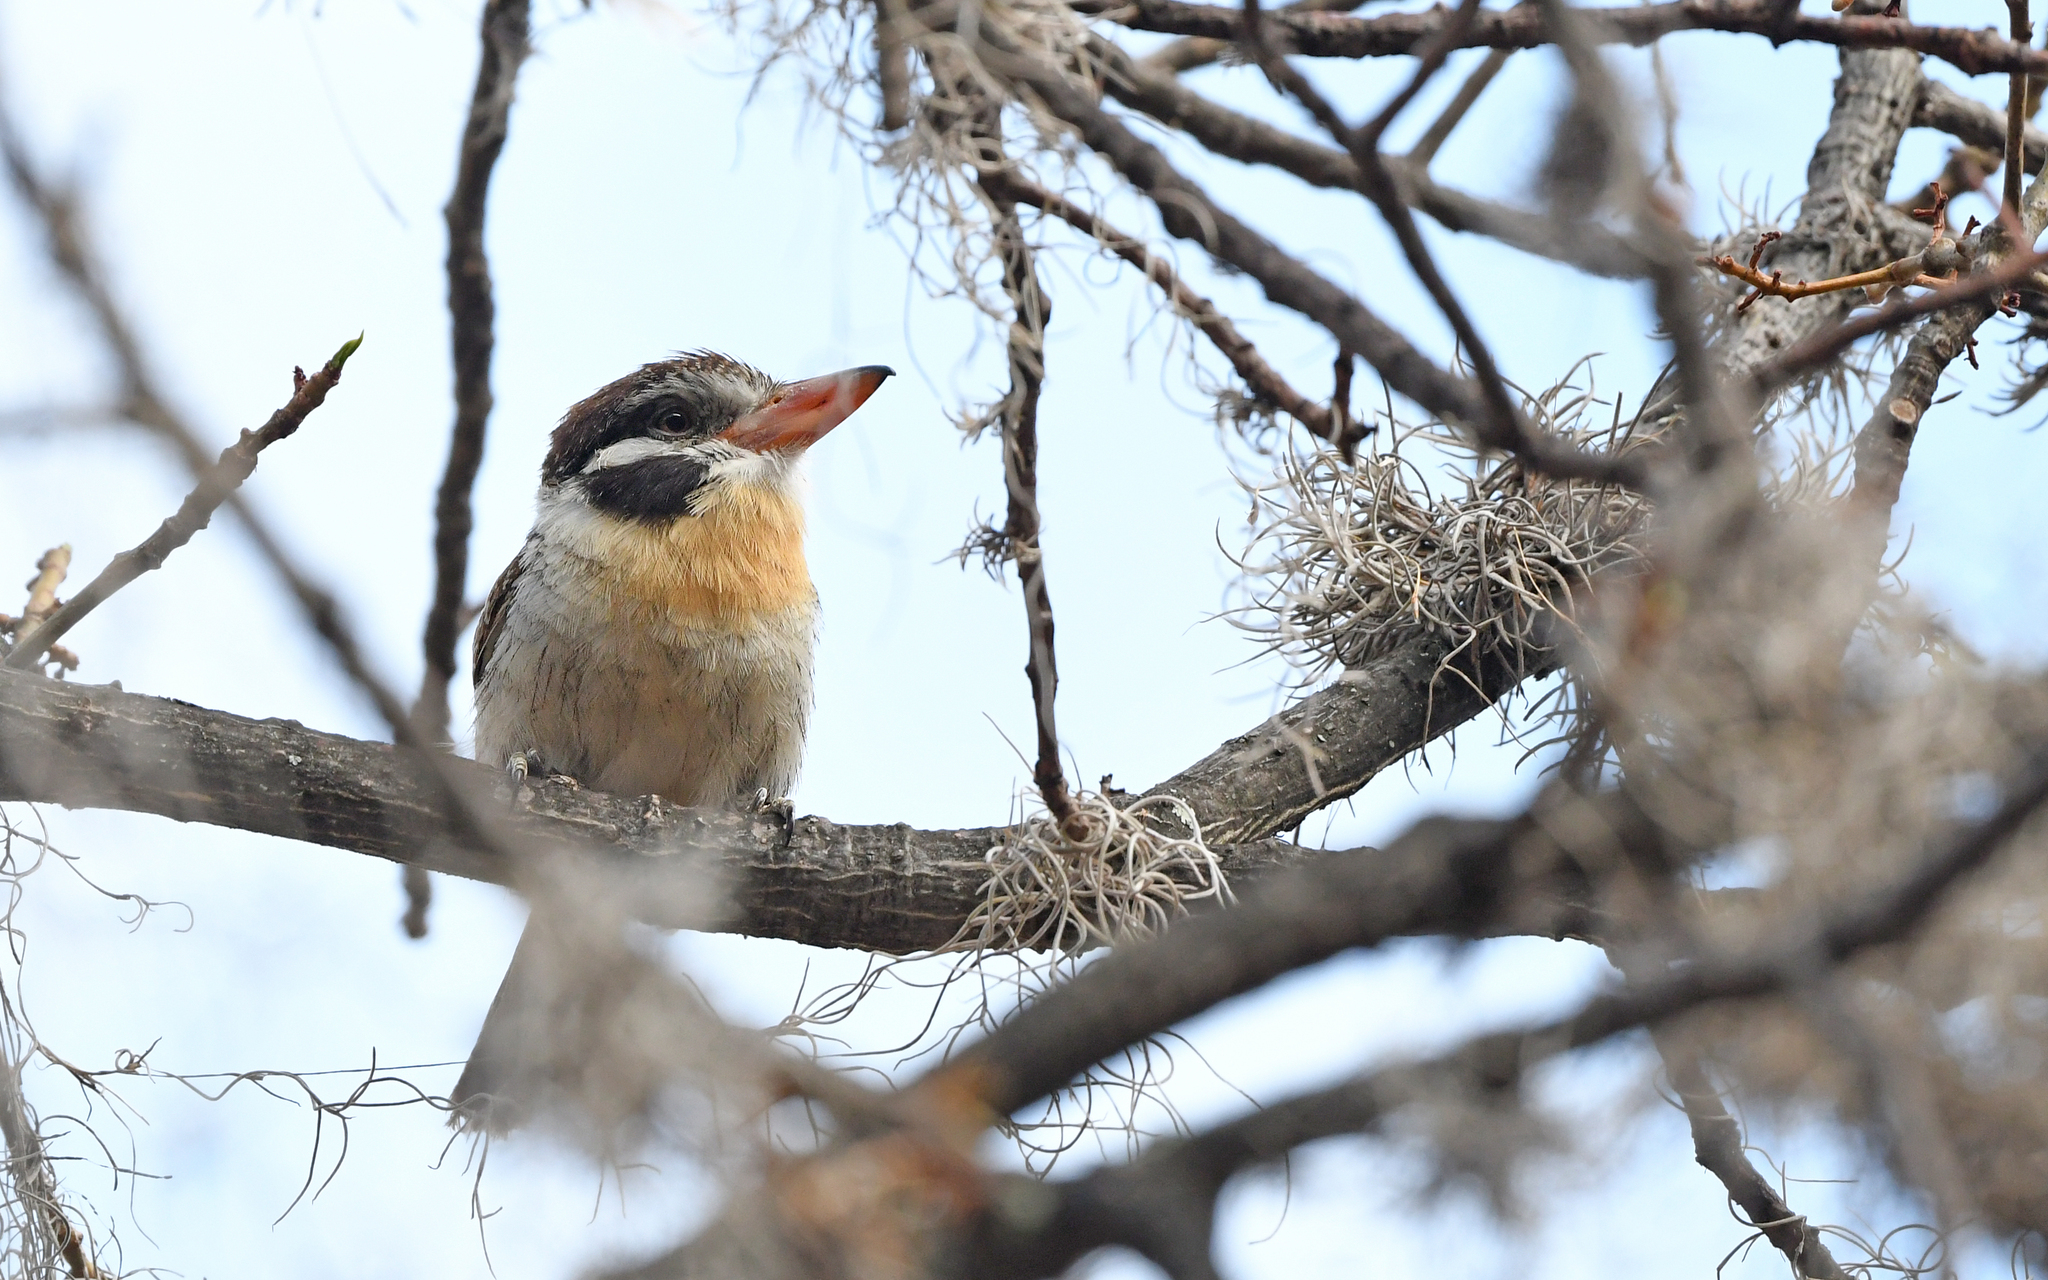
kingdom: Animalia
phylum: Chordata
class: Aves
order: Piciformes
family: Bucconidae
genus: Nystalus
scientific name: Nystalus chacuru
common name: White-eared puffbird
